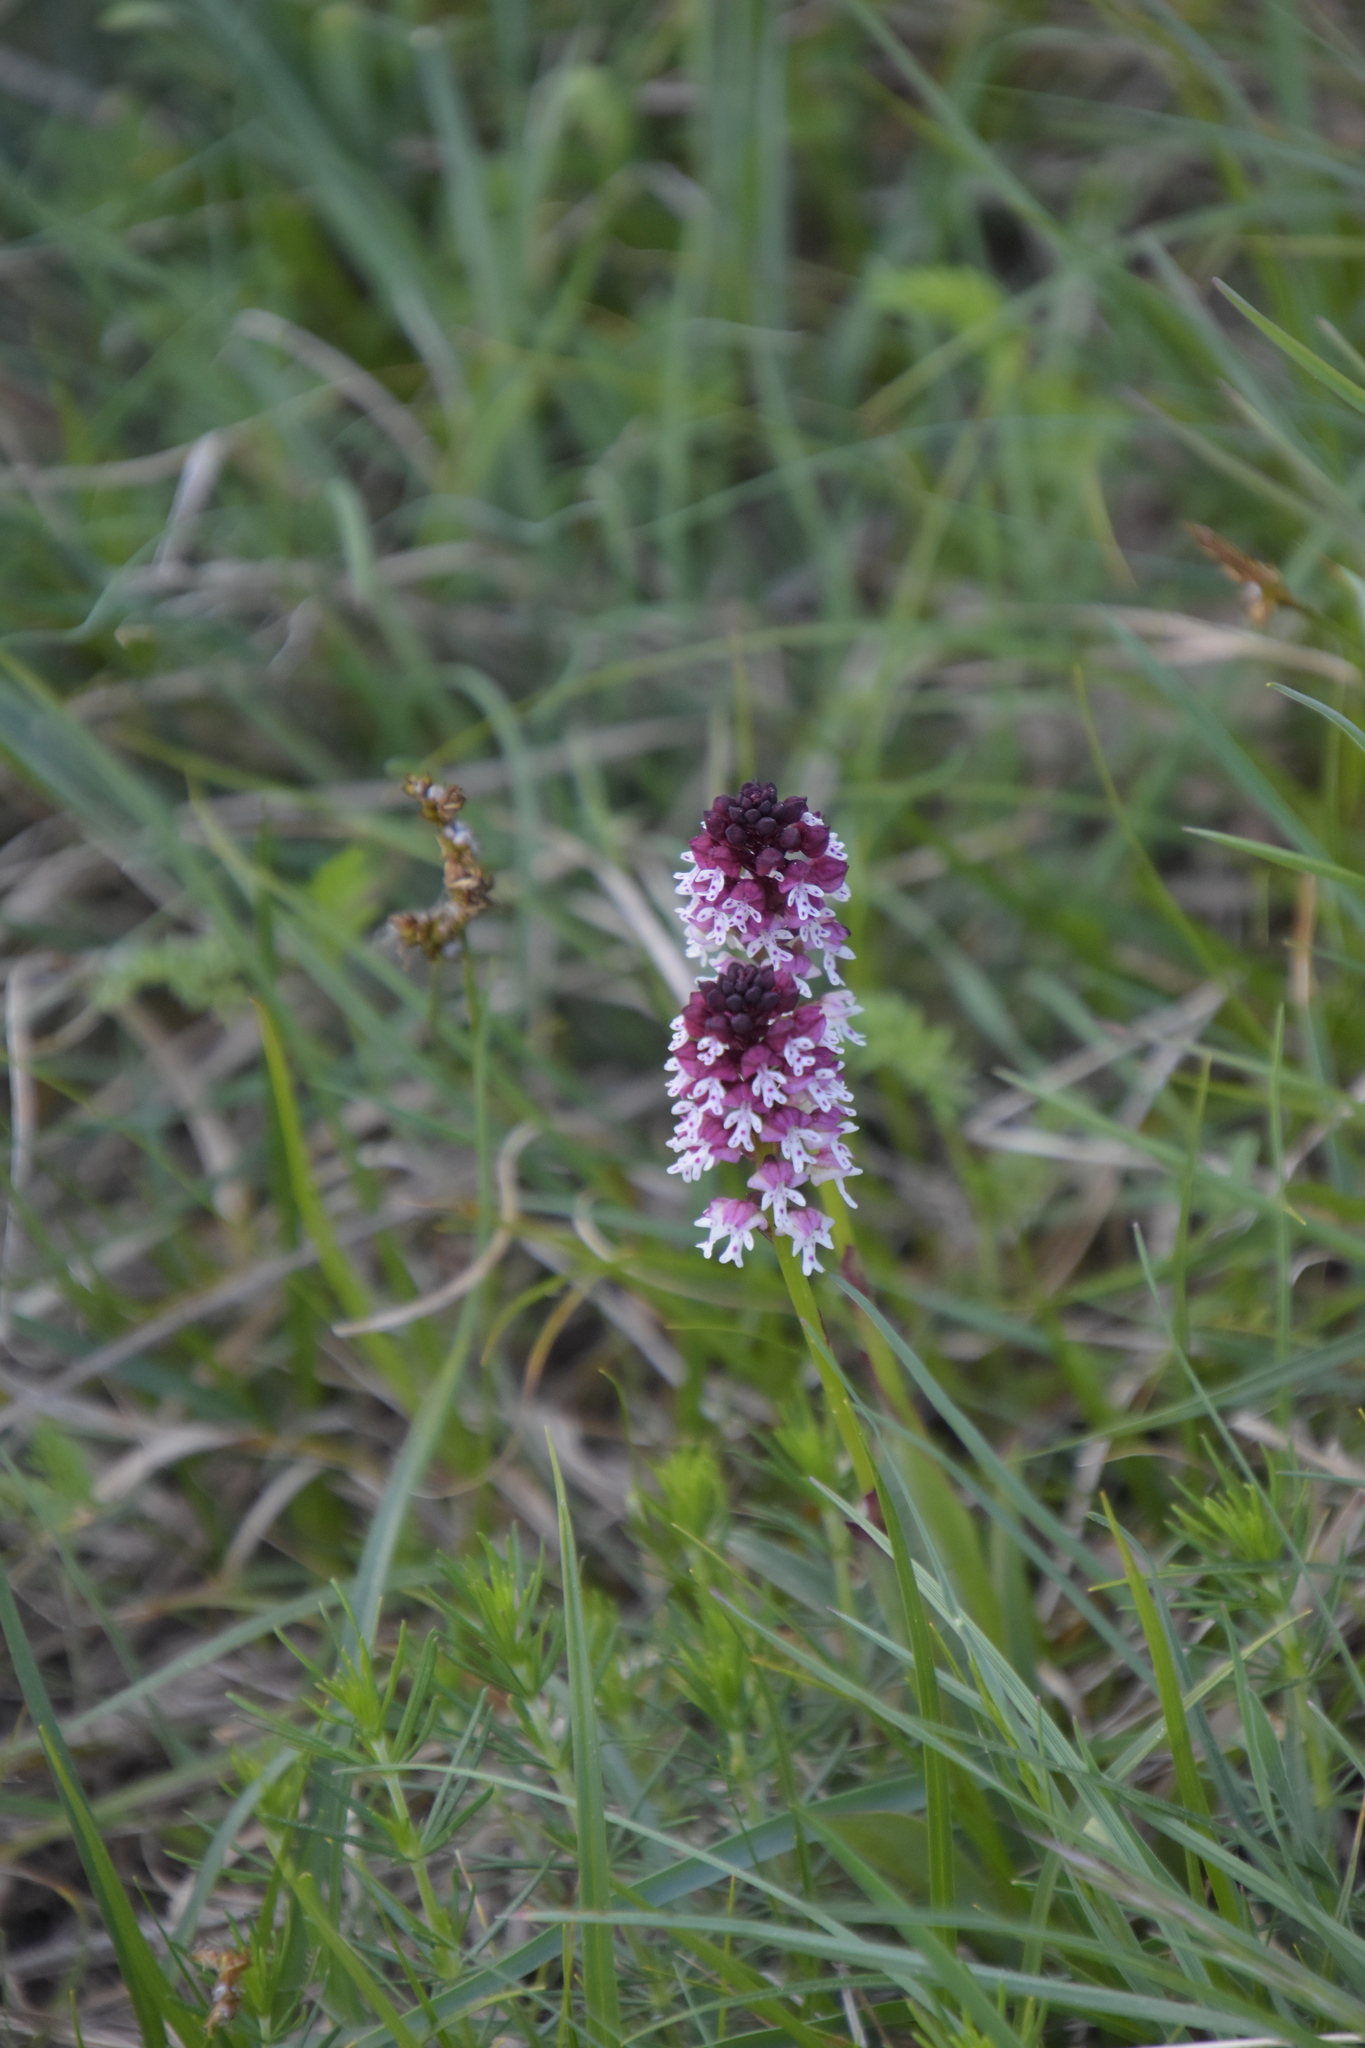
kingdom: Plantae
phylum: Tracheophyta
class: Liliopsida
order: Asparagales
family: Orchidaceae
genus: Neotinea
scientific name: Neotinea ustulata
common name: Burnt orchid
